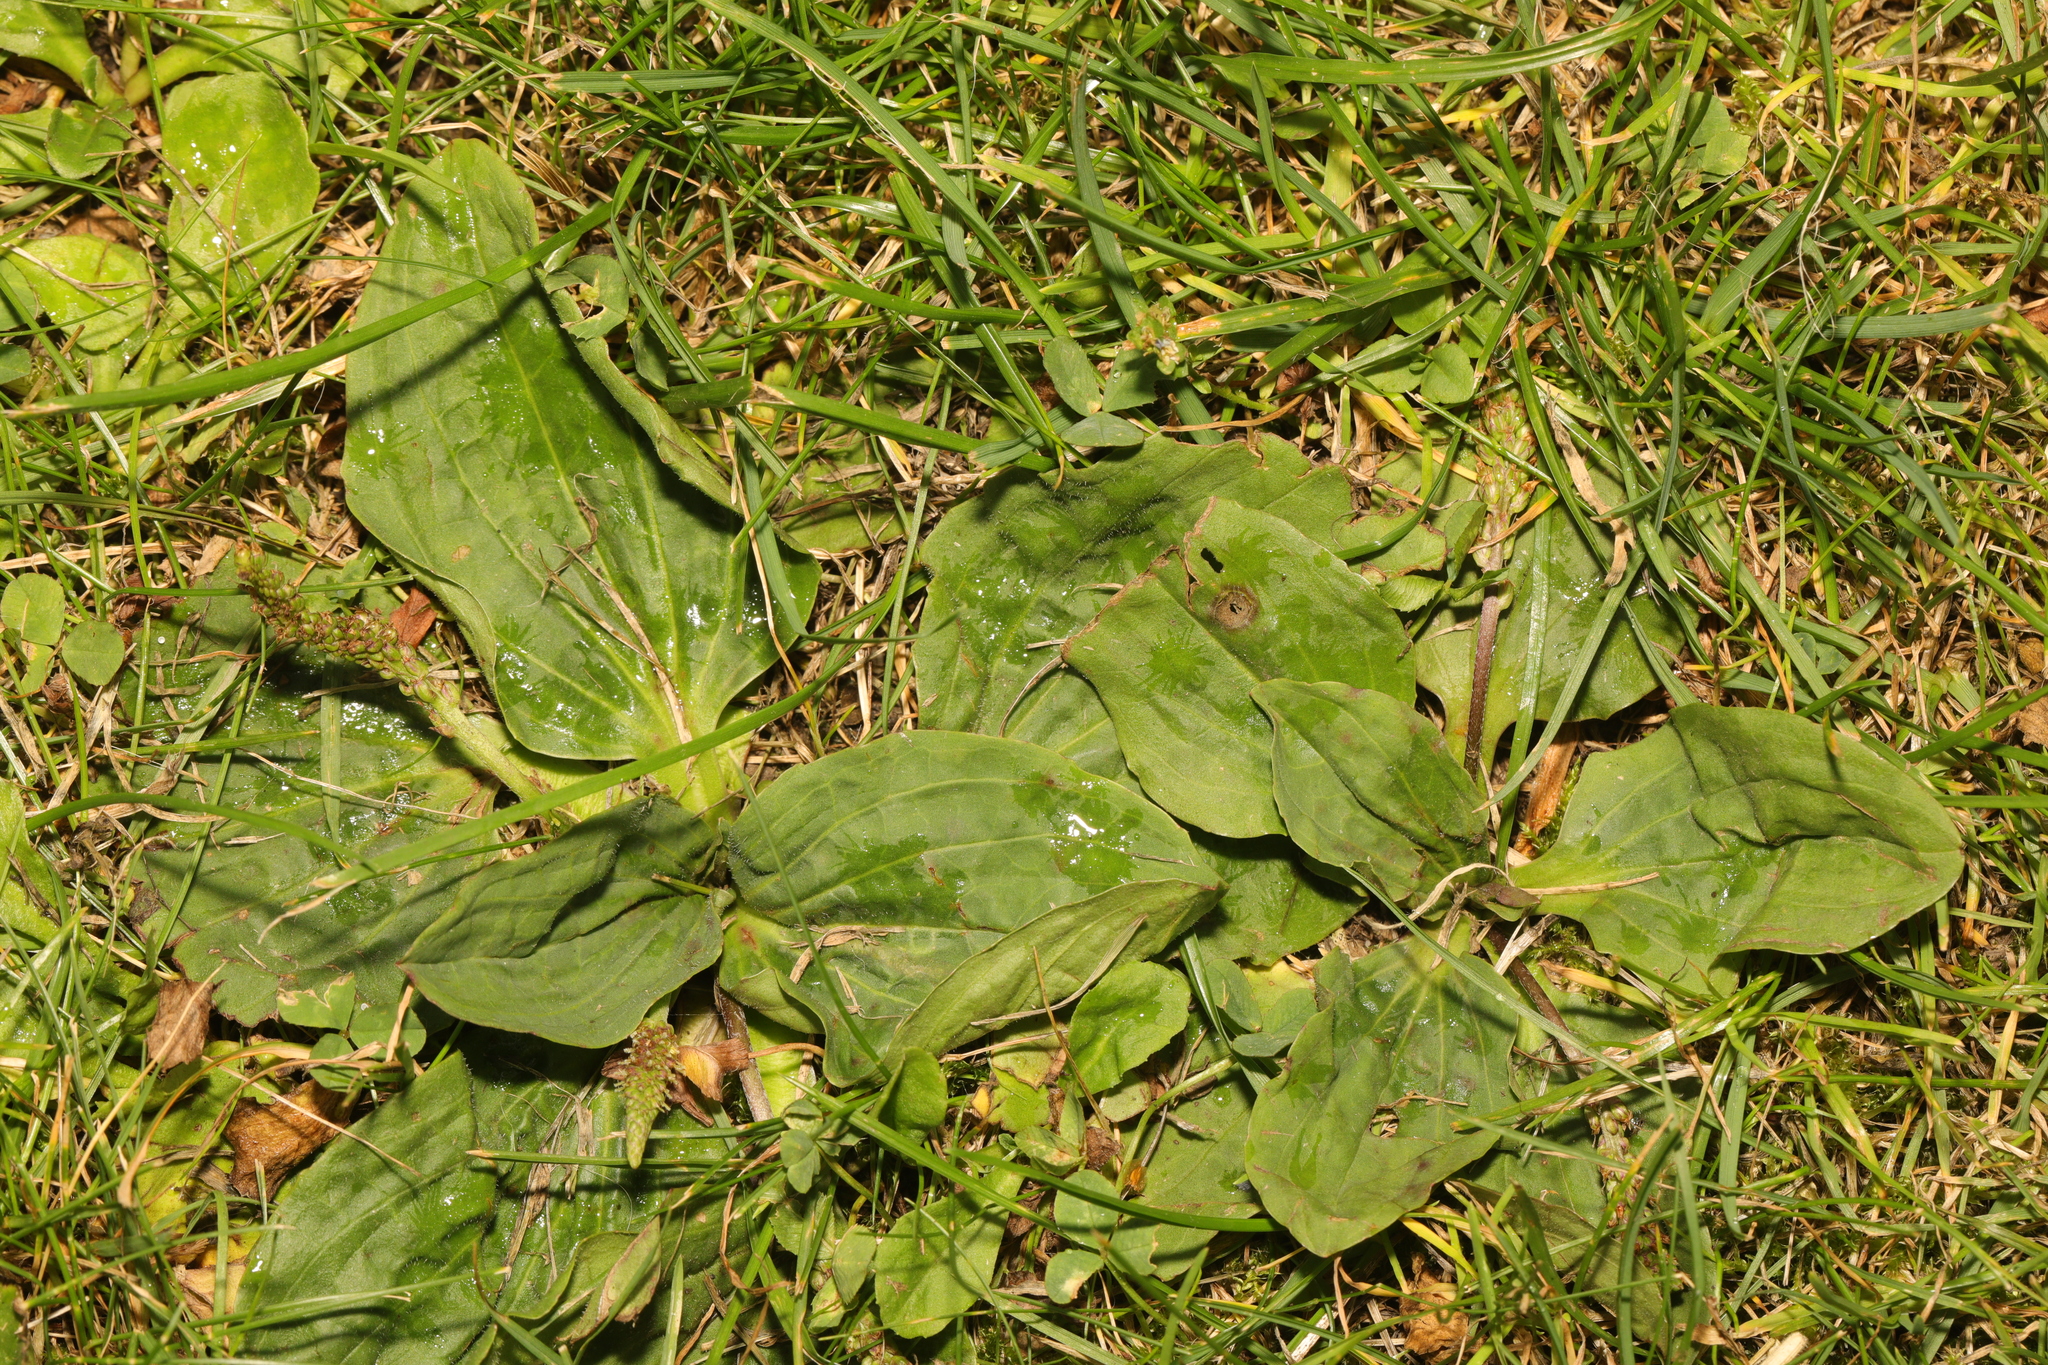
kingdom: Plantae
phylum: Tracheophyta
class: Magnoliopsida
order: Lamiales
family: Plantaginaceae
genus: Plantago
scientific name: Plantago major
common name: Common plantain
